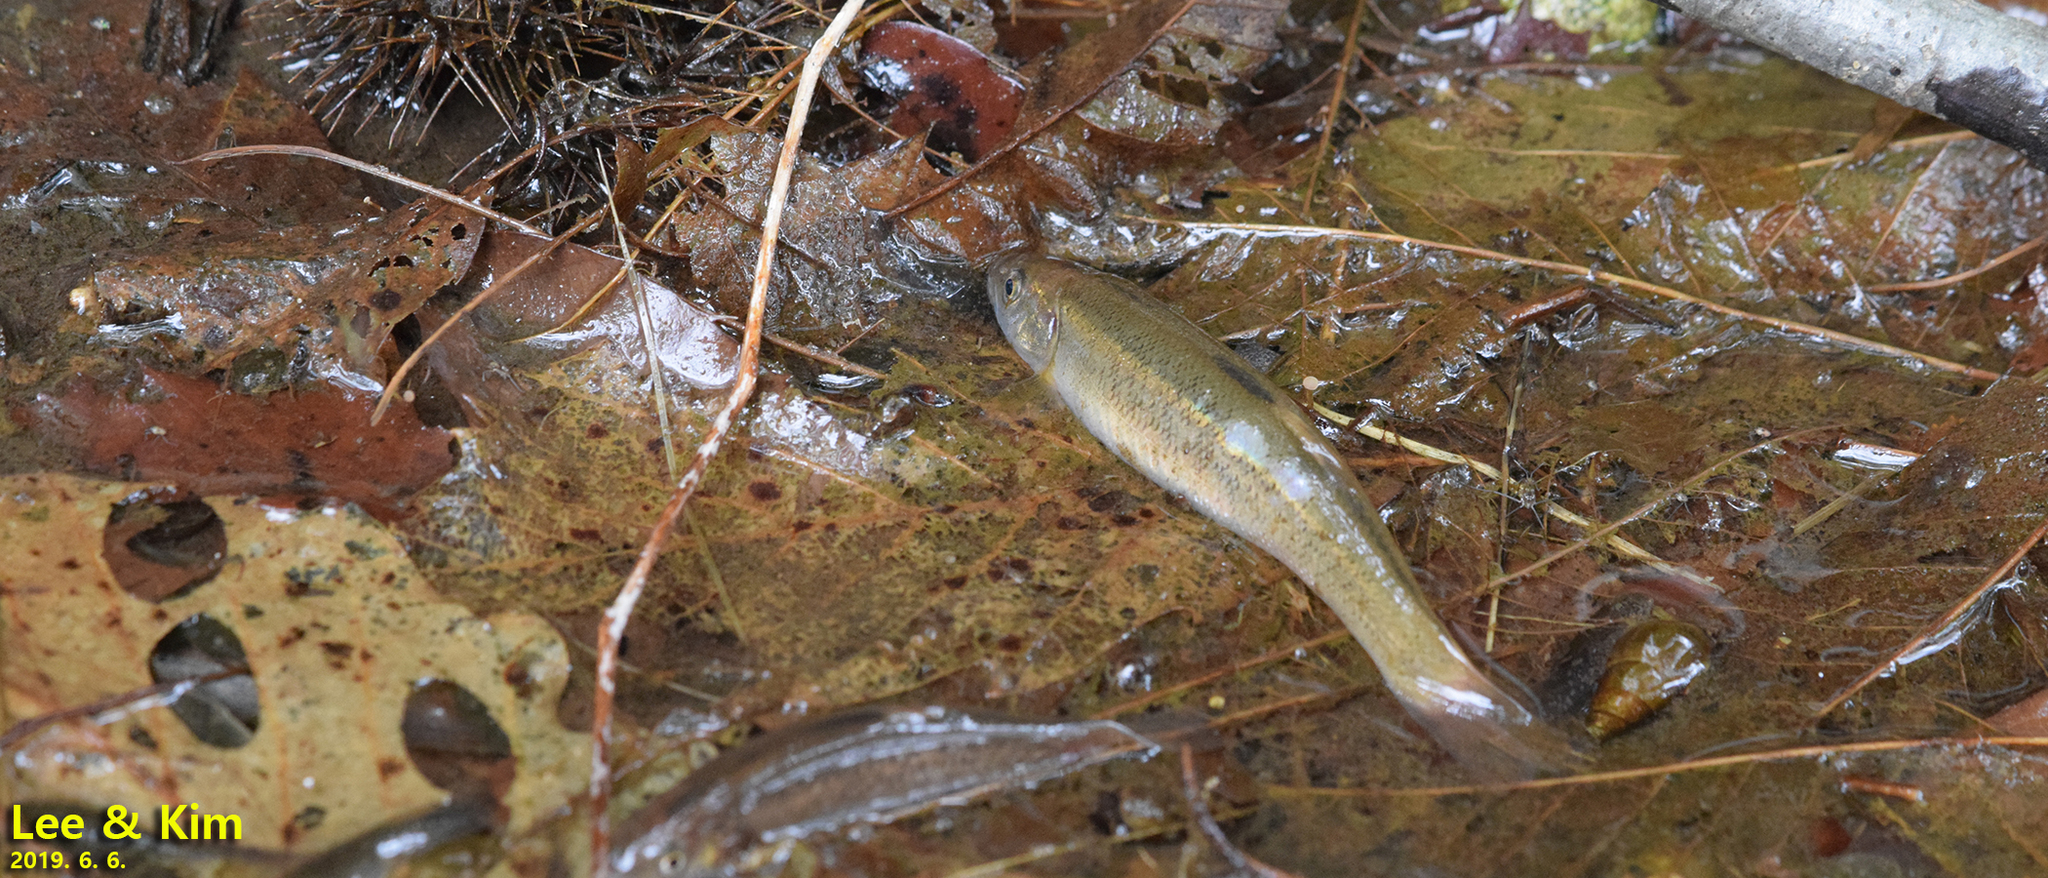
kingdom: Animalia
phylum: Chordata
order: Cypriniformes
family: Cyprinidae
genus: Rhynchocypris
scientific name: Rhynchocypris oxycephalus
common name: Chinese minnow
